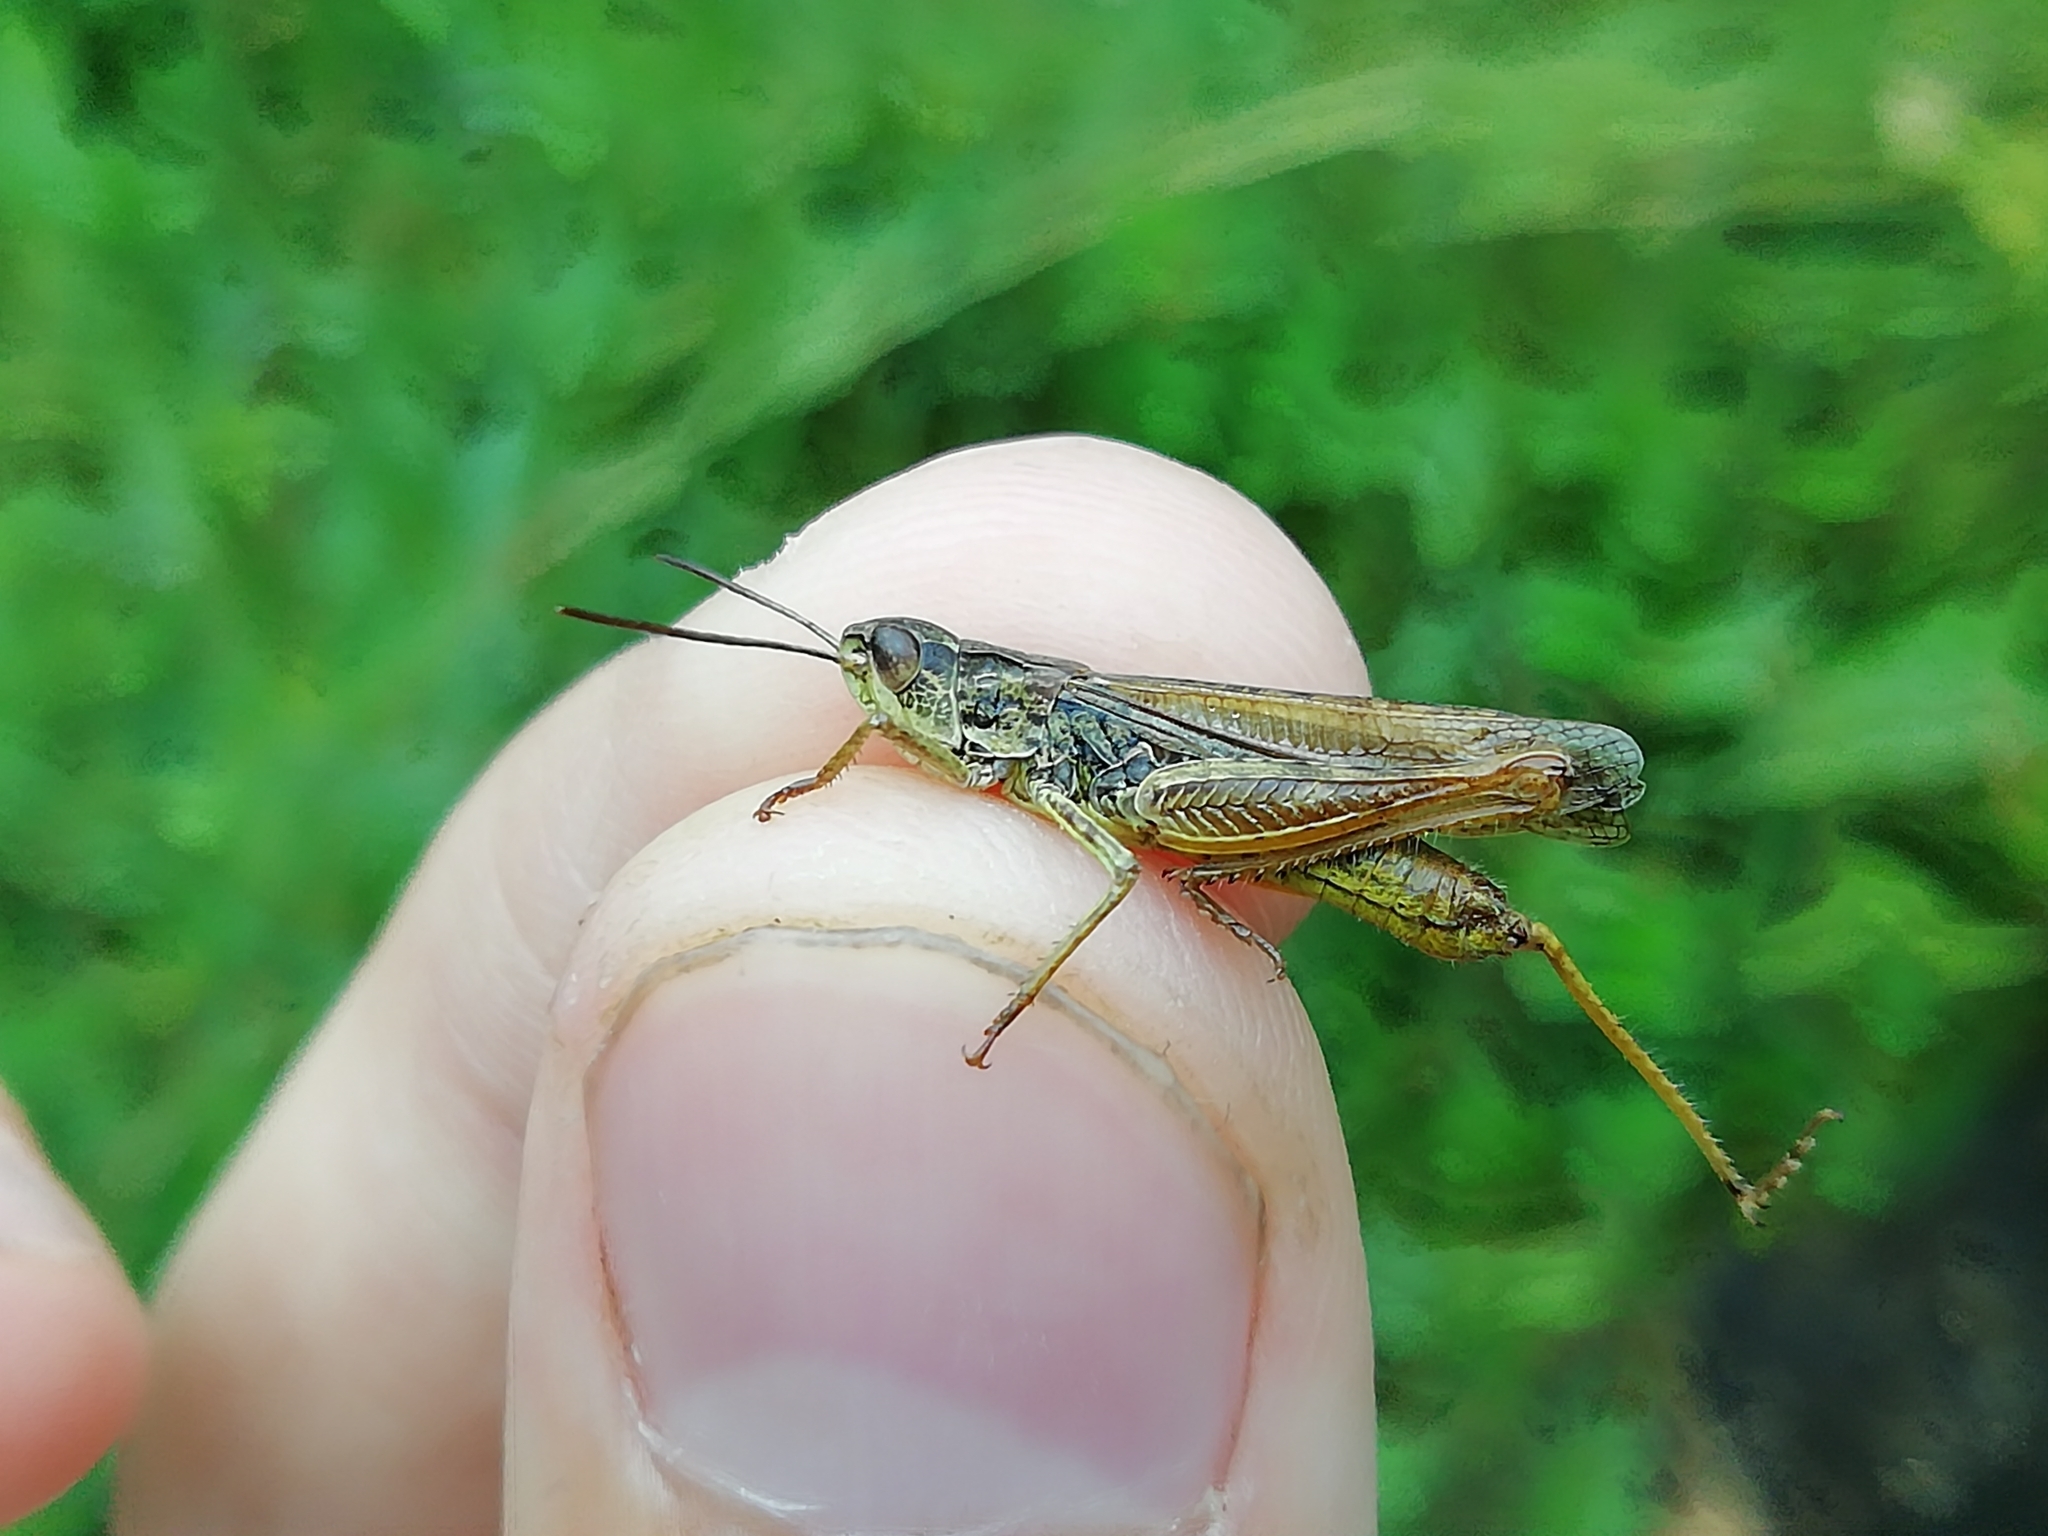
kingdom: Animalia
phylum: Arthropoda
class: Insecta
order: Orthoptera
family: Acrididae
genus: Chorthippus
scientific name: Chorthippus apricarius
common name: Upland field grasshopper
